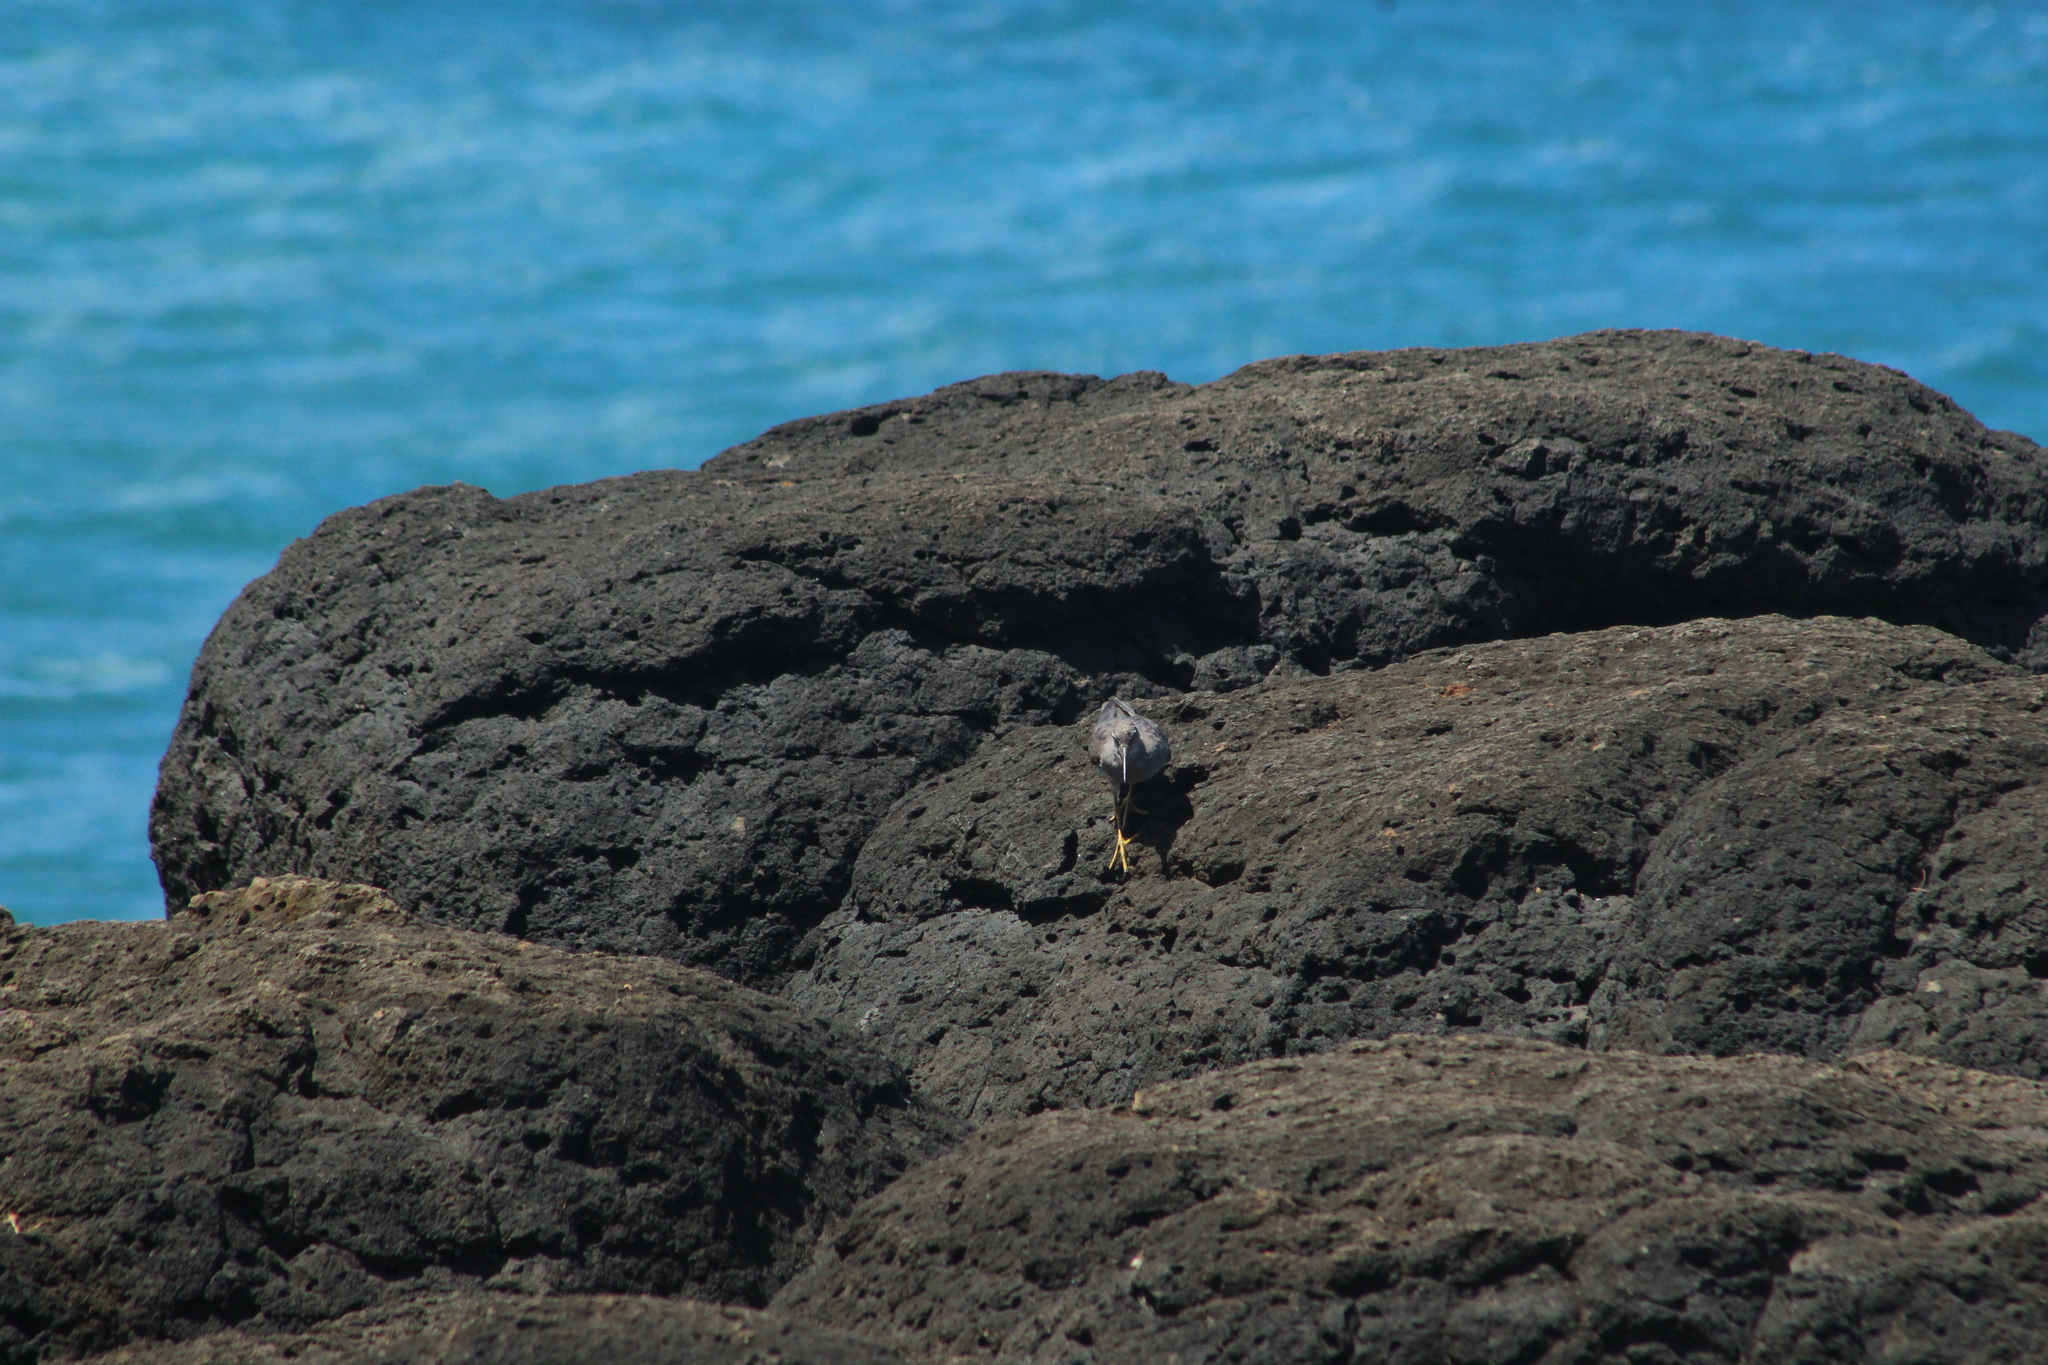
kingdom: Animalia
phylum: Chordata
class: Aves
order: Charadriiformes
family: Scolopacidae
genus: Tringa
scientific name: Tringa incana
